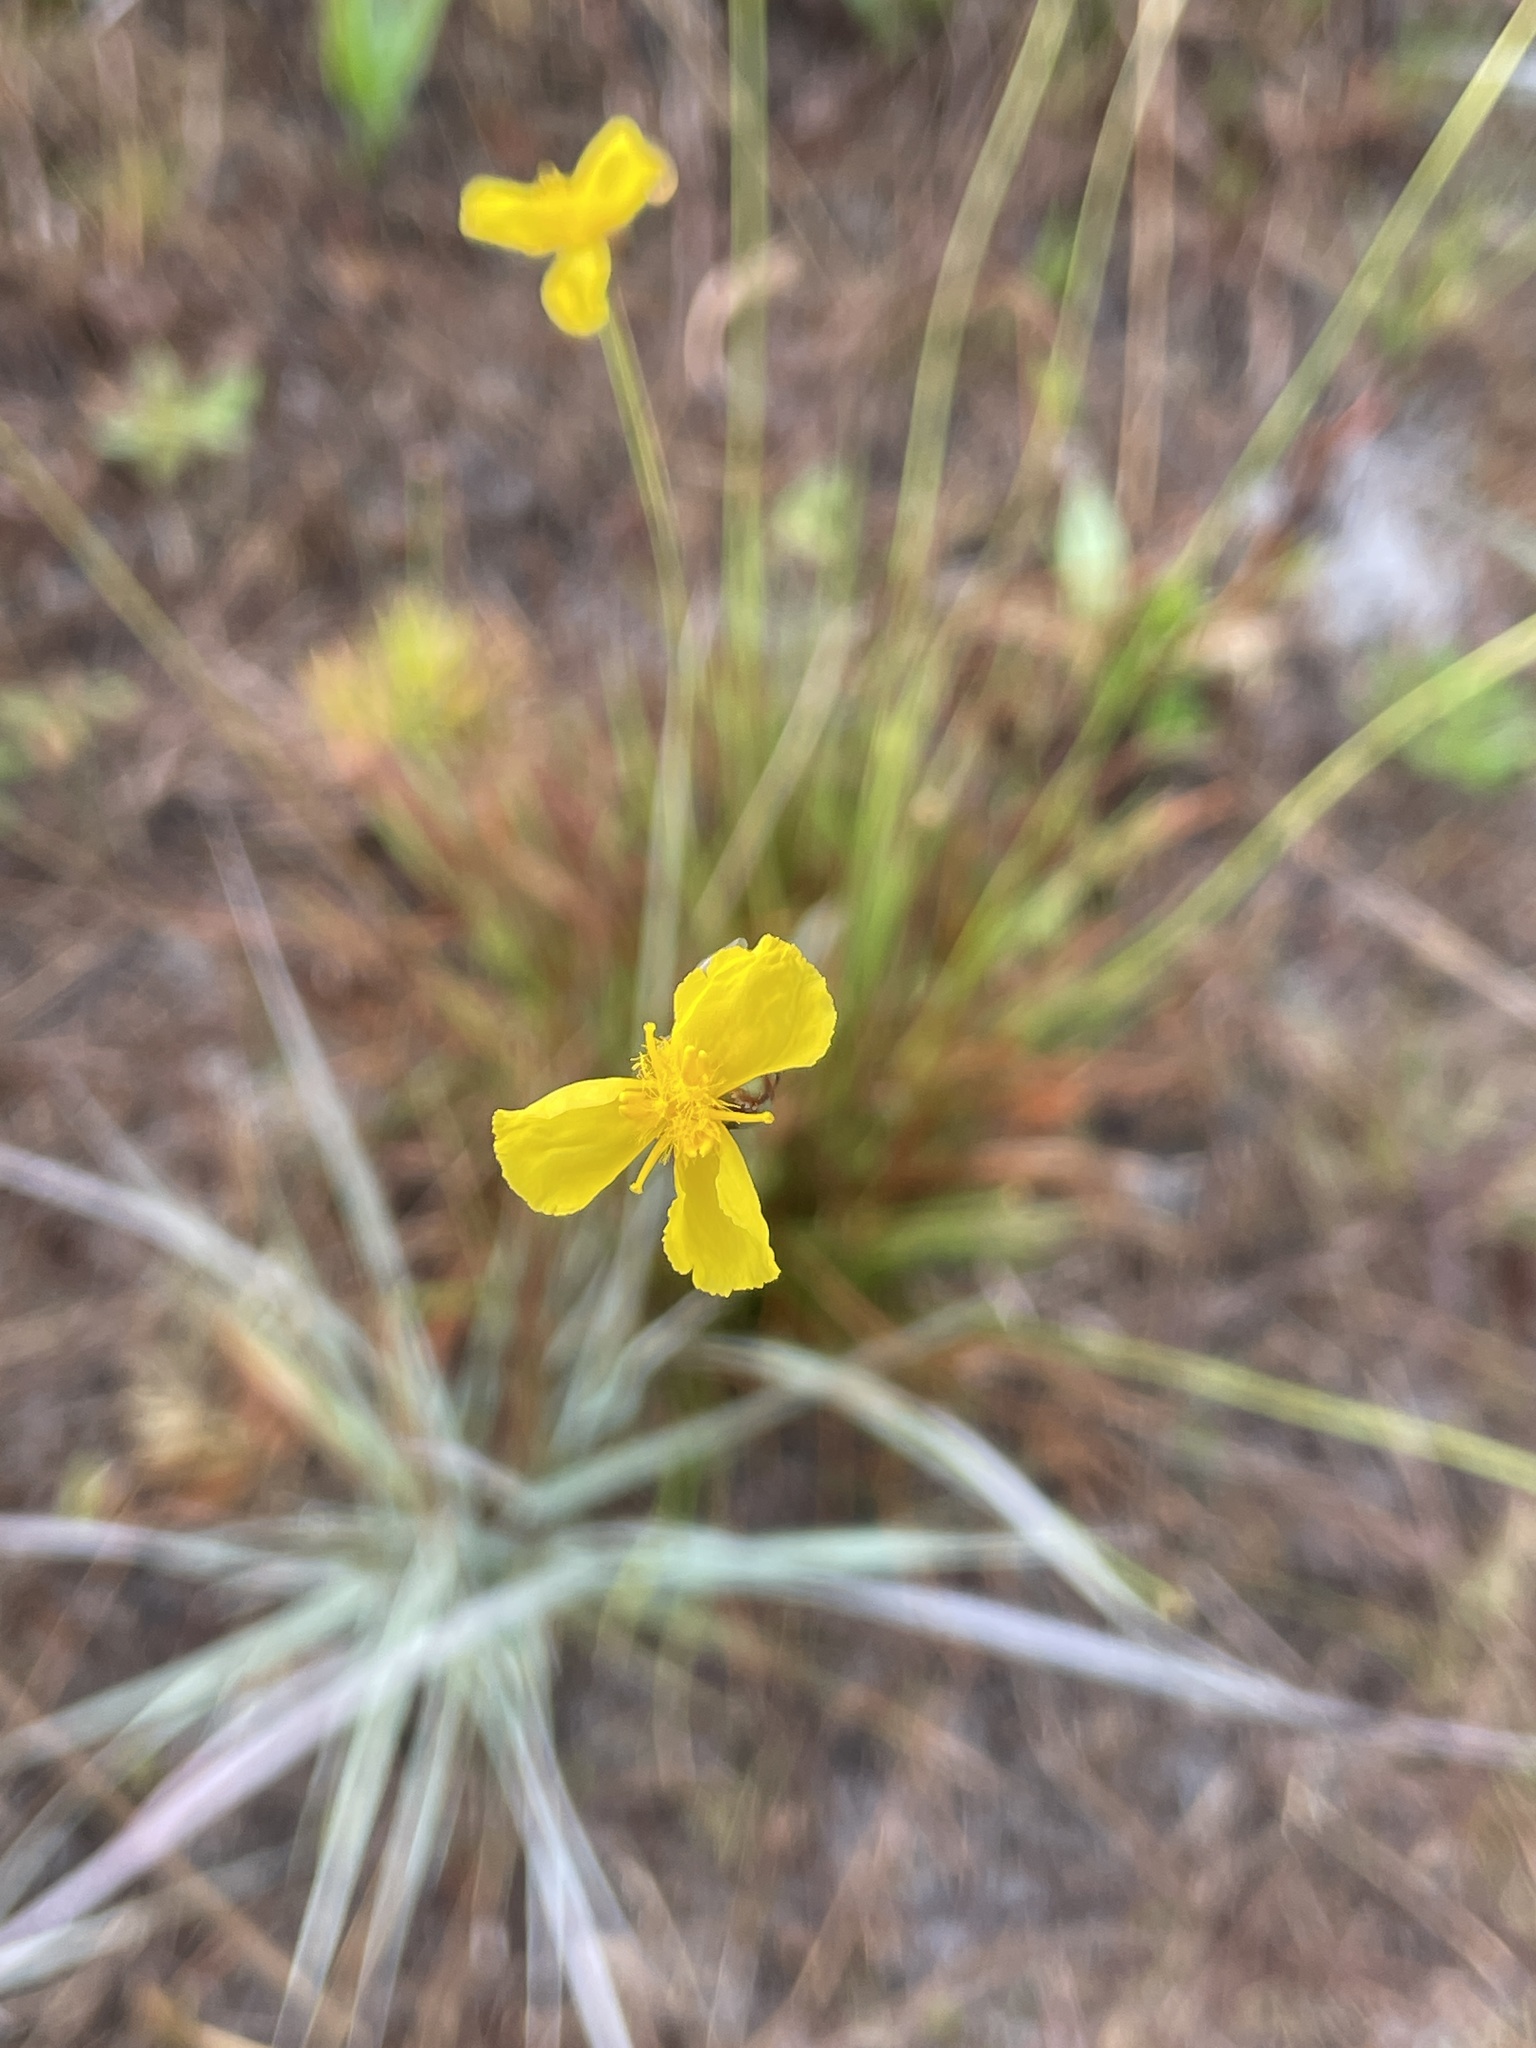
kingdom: Plantae
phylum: Tracheophyta
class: Liliopsida
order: Poales
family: Xyridaceae
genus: Xyris
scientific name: Xyris elliottii
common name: Elliot's yelloweyed grass
